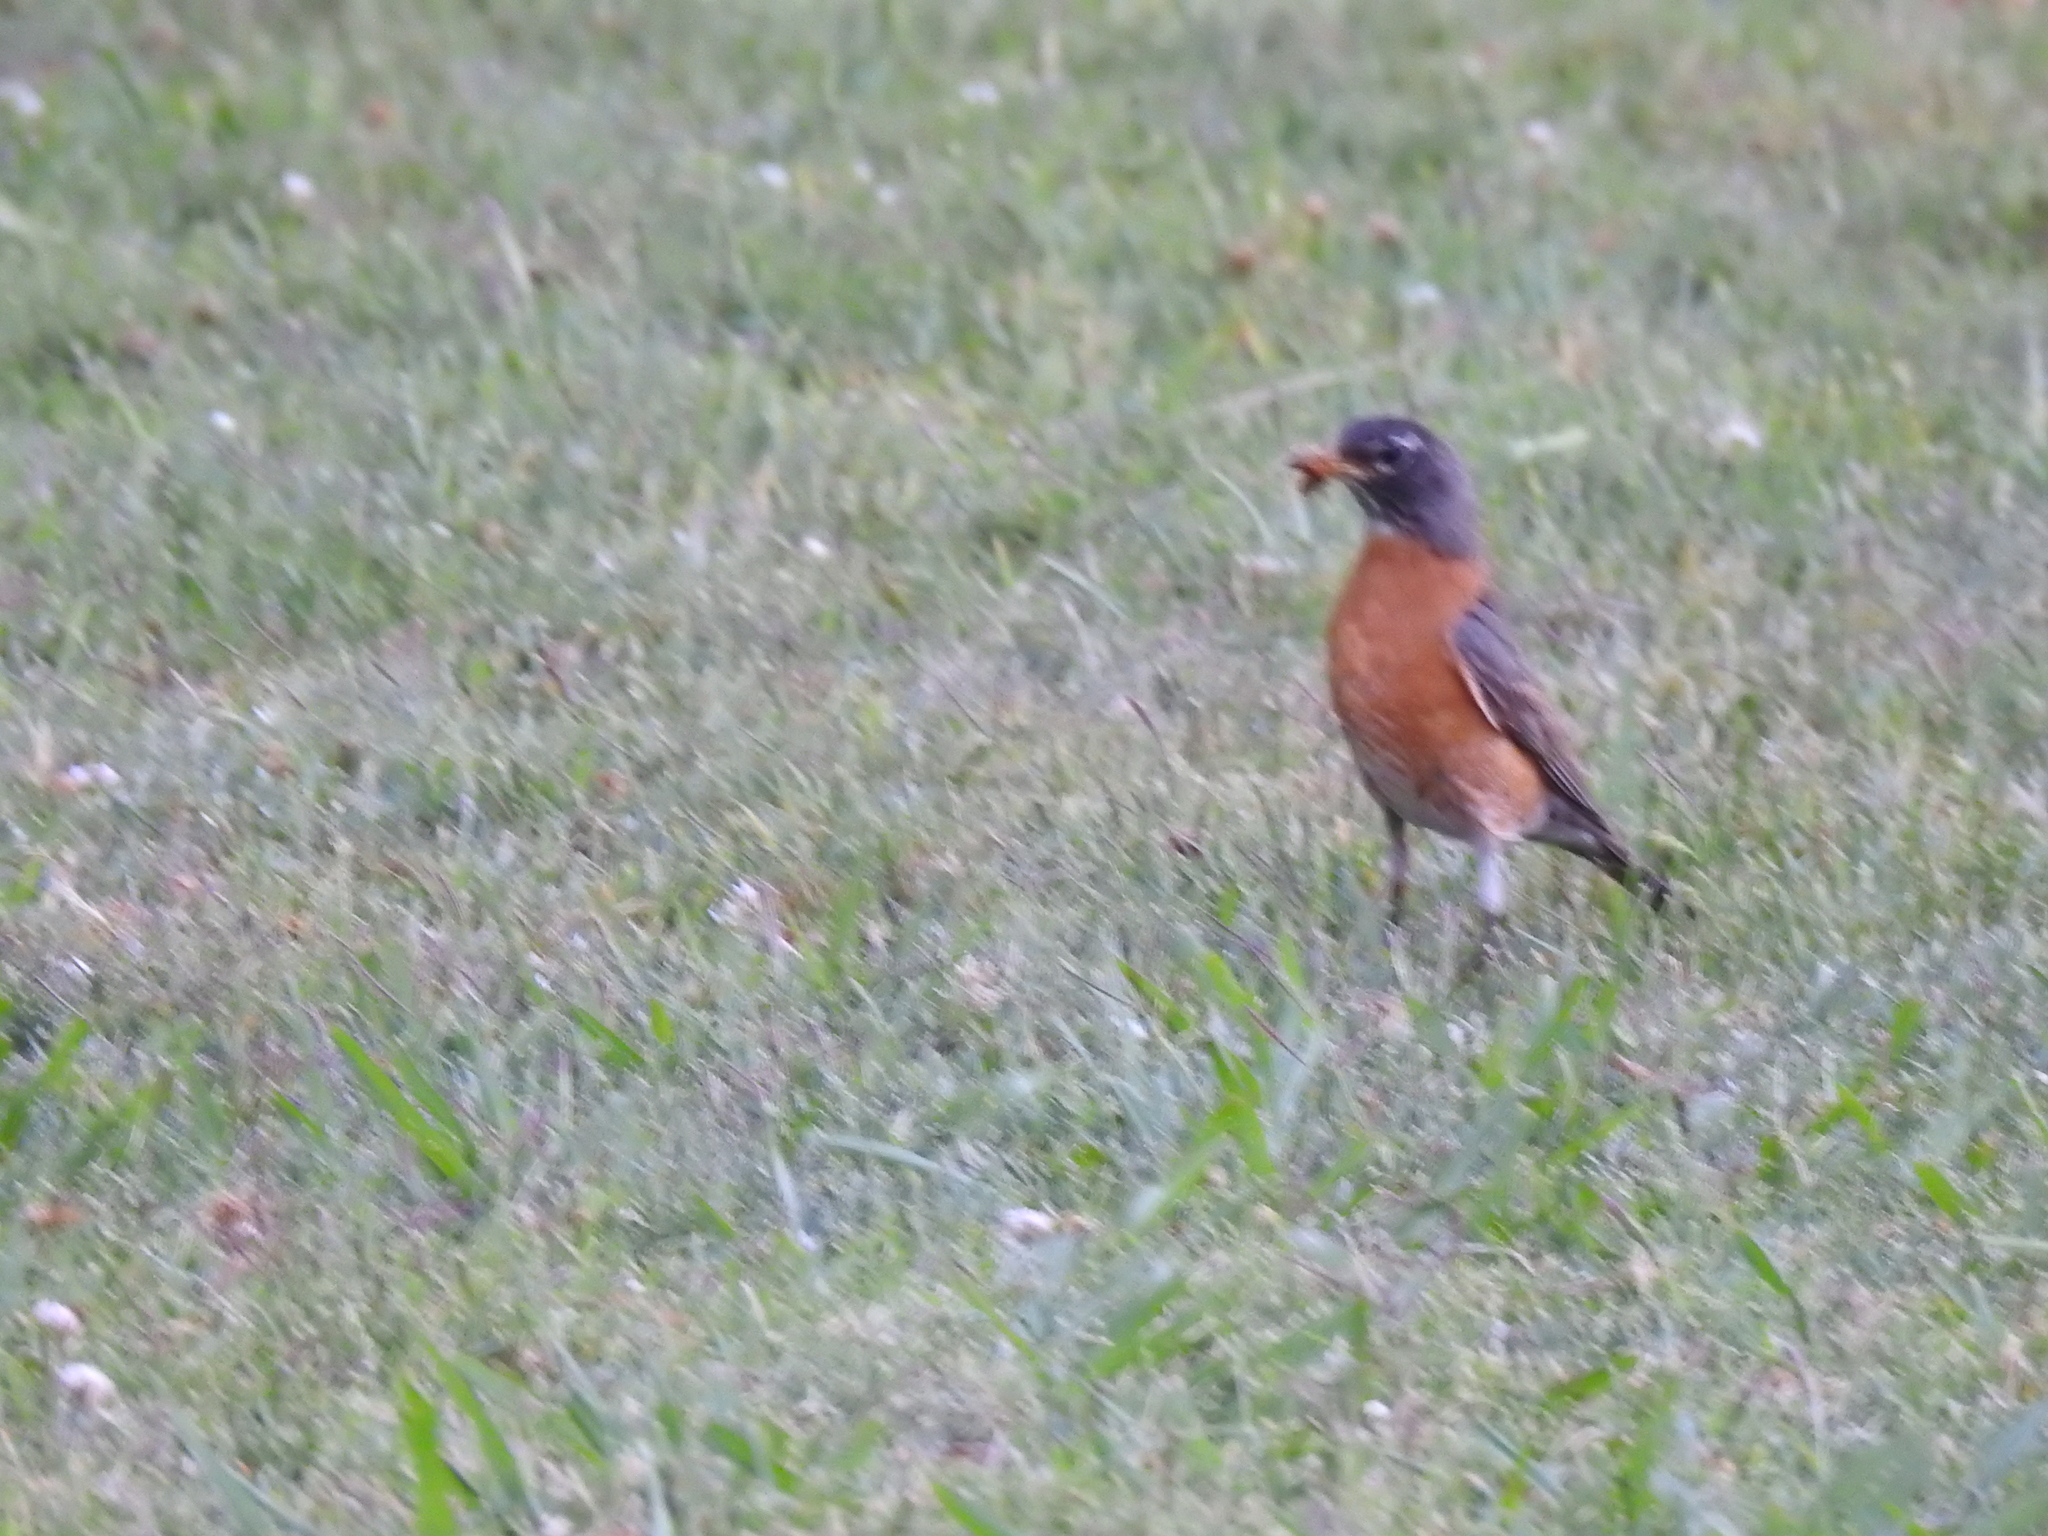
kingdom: Animalia
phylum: Chordata
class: Aves
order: Passeriformes
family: Turdidae
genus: Turdus
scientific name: Turdus migratorius
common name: American robin
